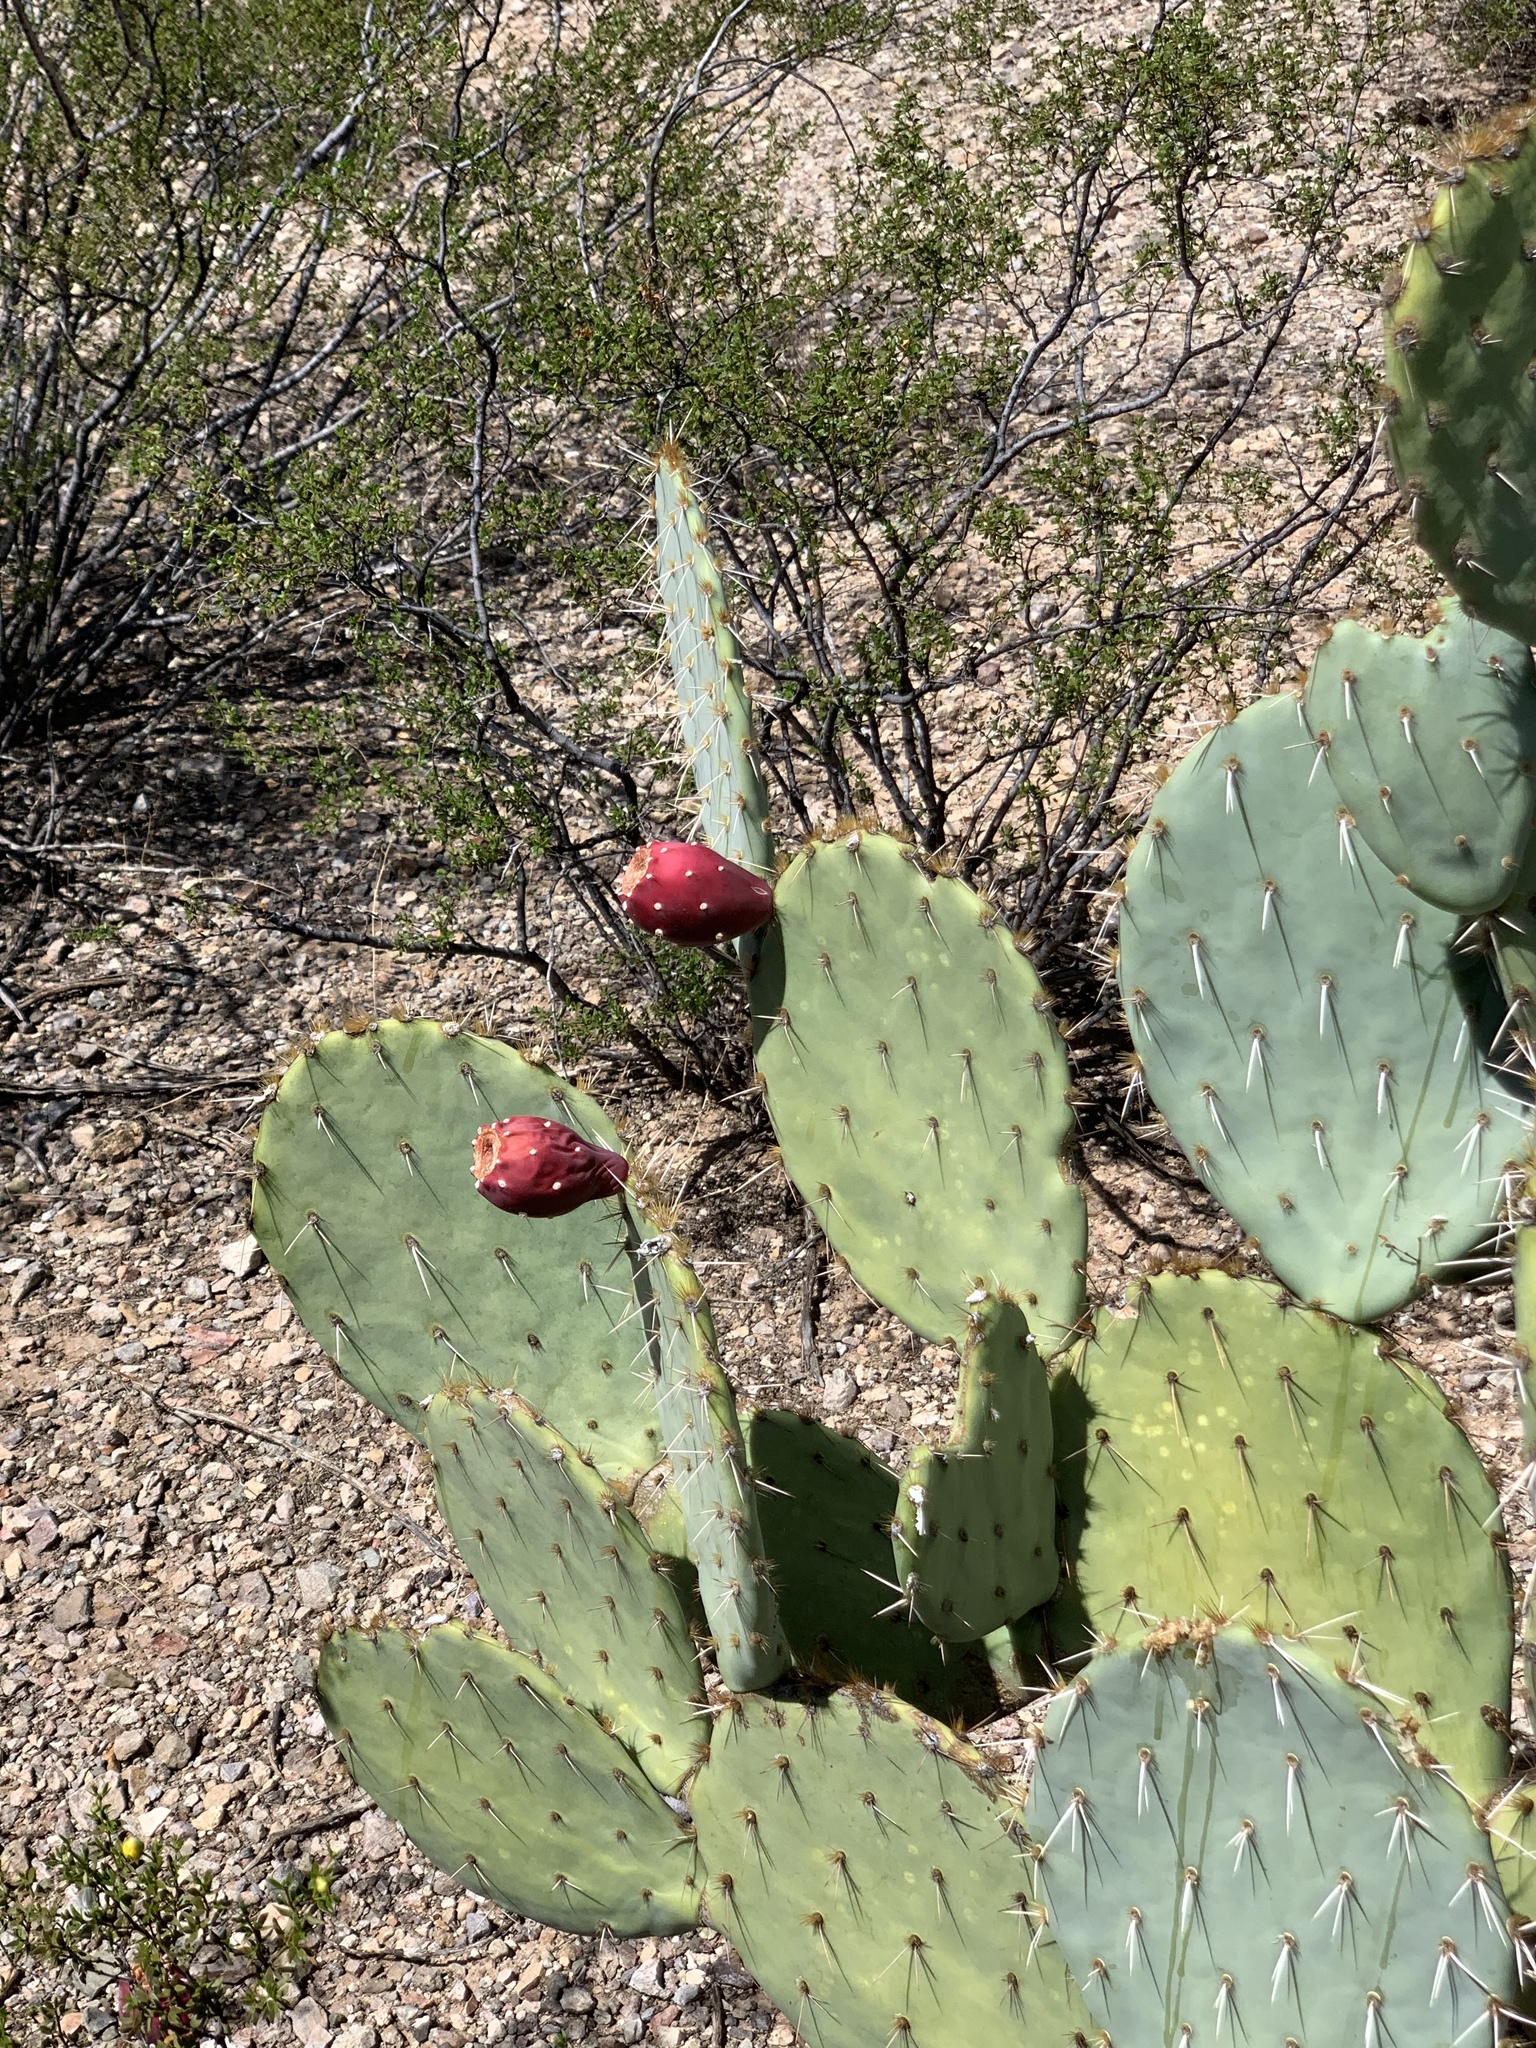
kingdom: Plantae
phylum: Tracheophyta
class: Magnoliopsida
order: Caryophyllales
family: Cactaceae
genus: Opuntia
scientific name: Opuntia engelmannii
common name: Cactus-apple
